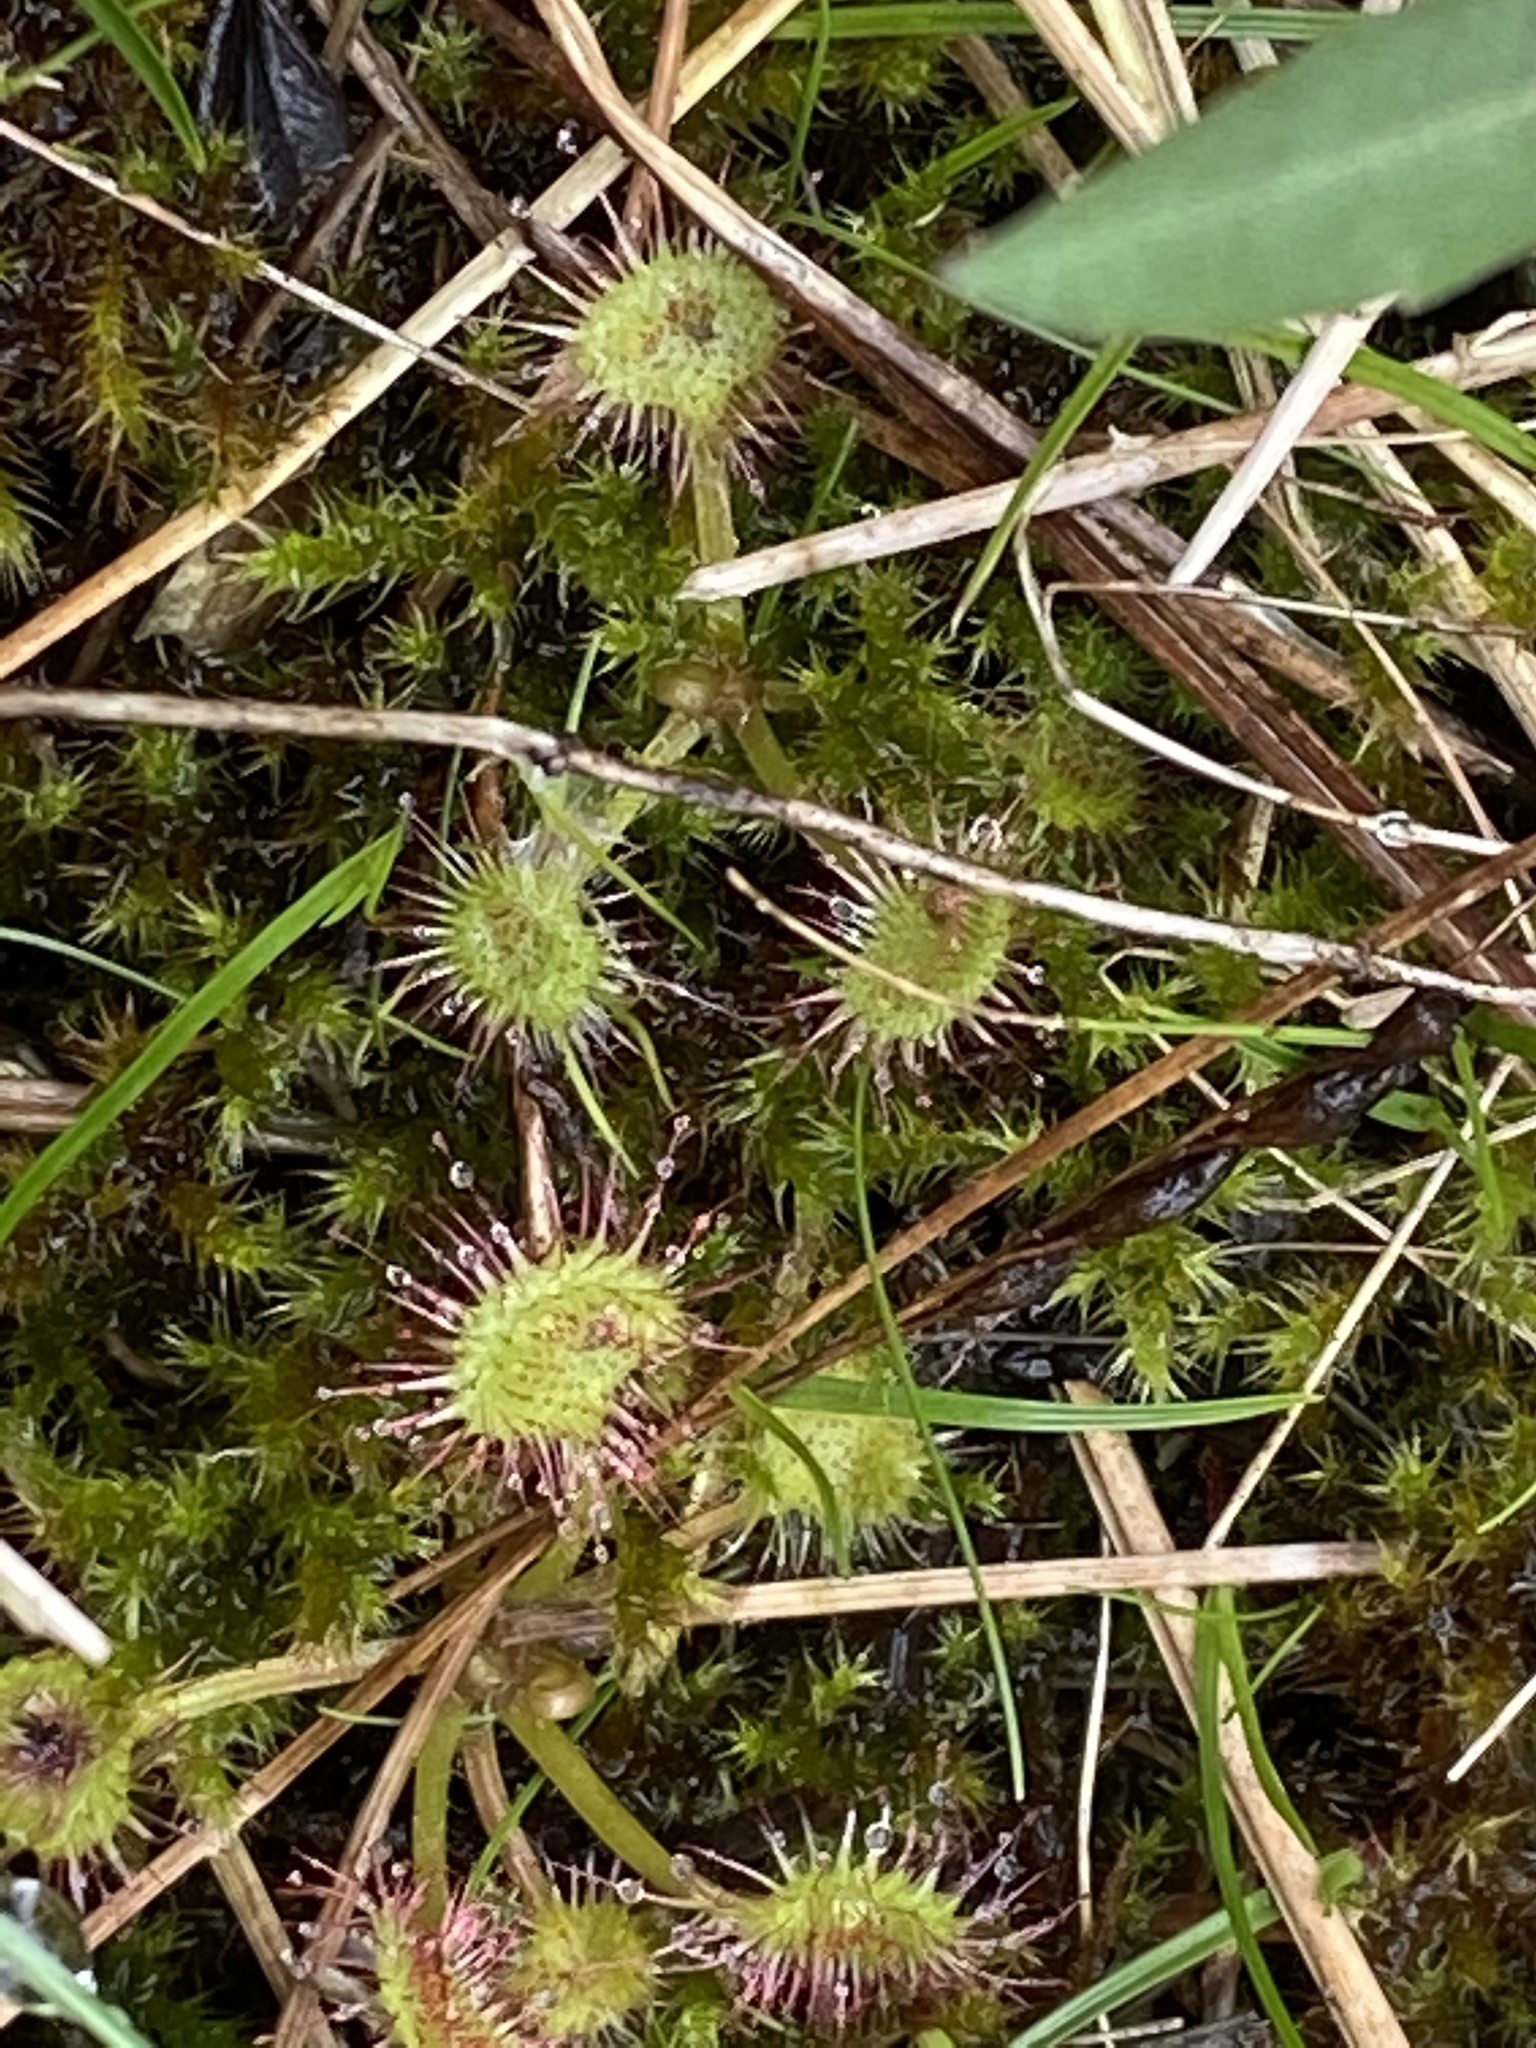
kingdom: Plantae
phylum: Tracheophyta
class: Magnoliopsida
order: Caryophyllales
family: Droseraceae
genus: Drosera
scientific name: Drosera rotundifolia
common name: Round-leaved sundew
